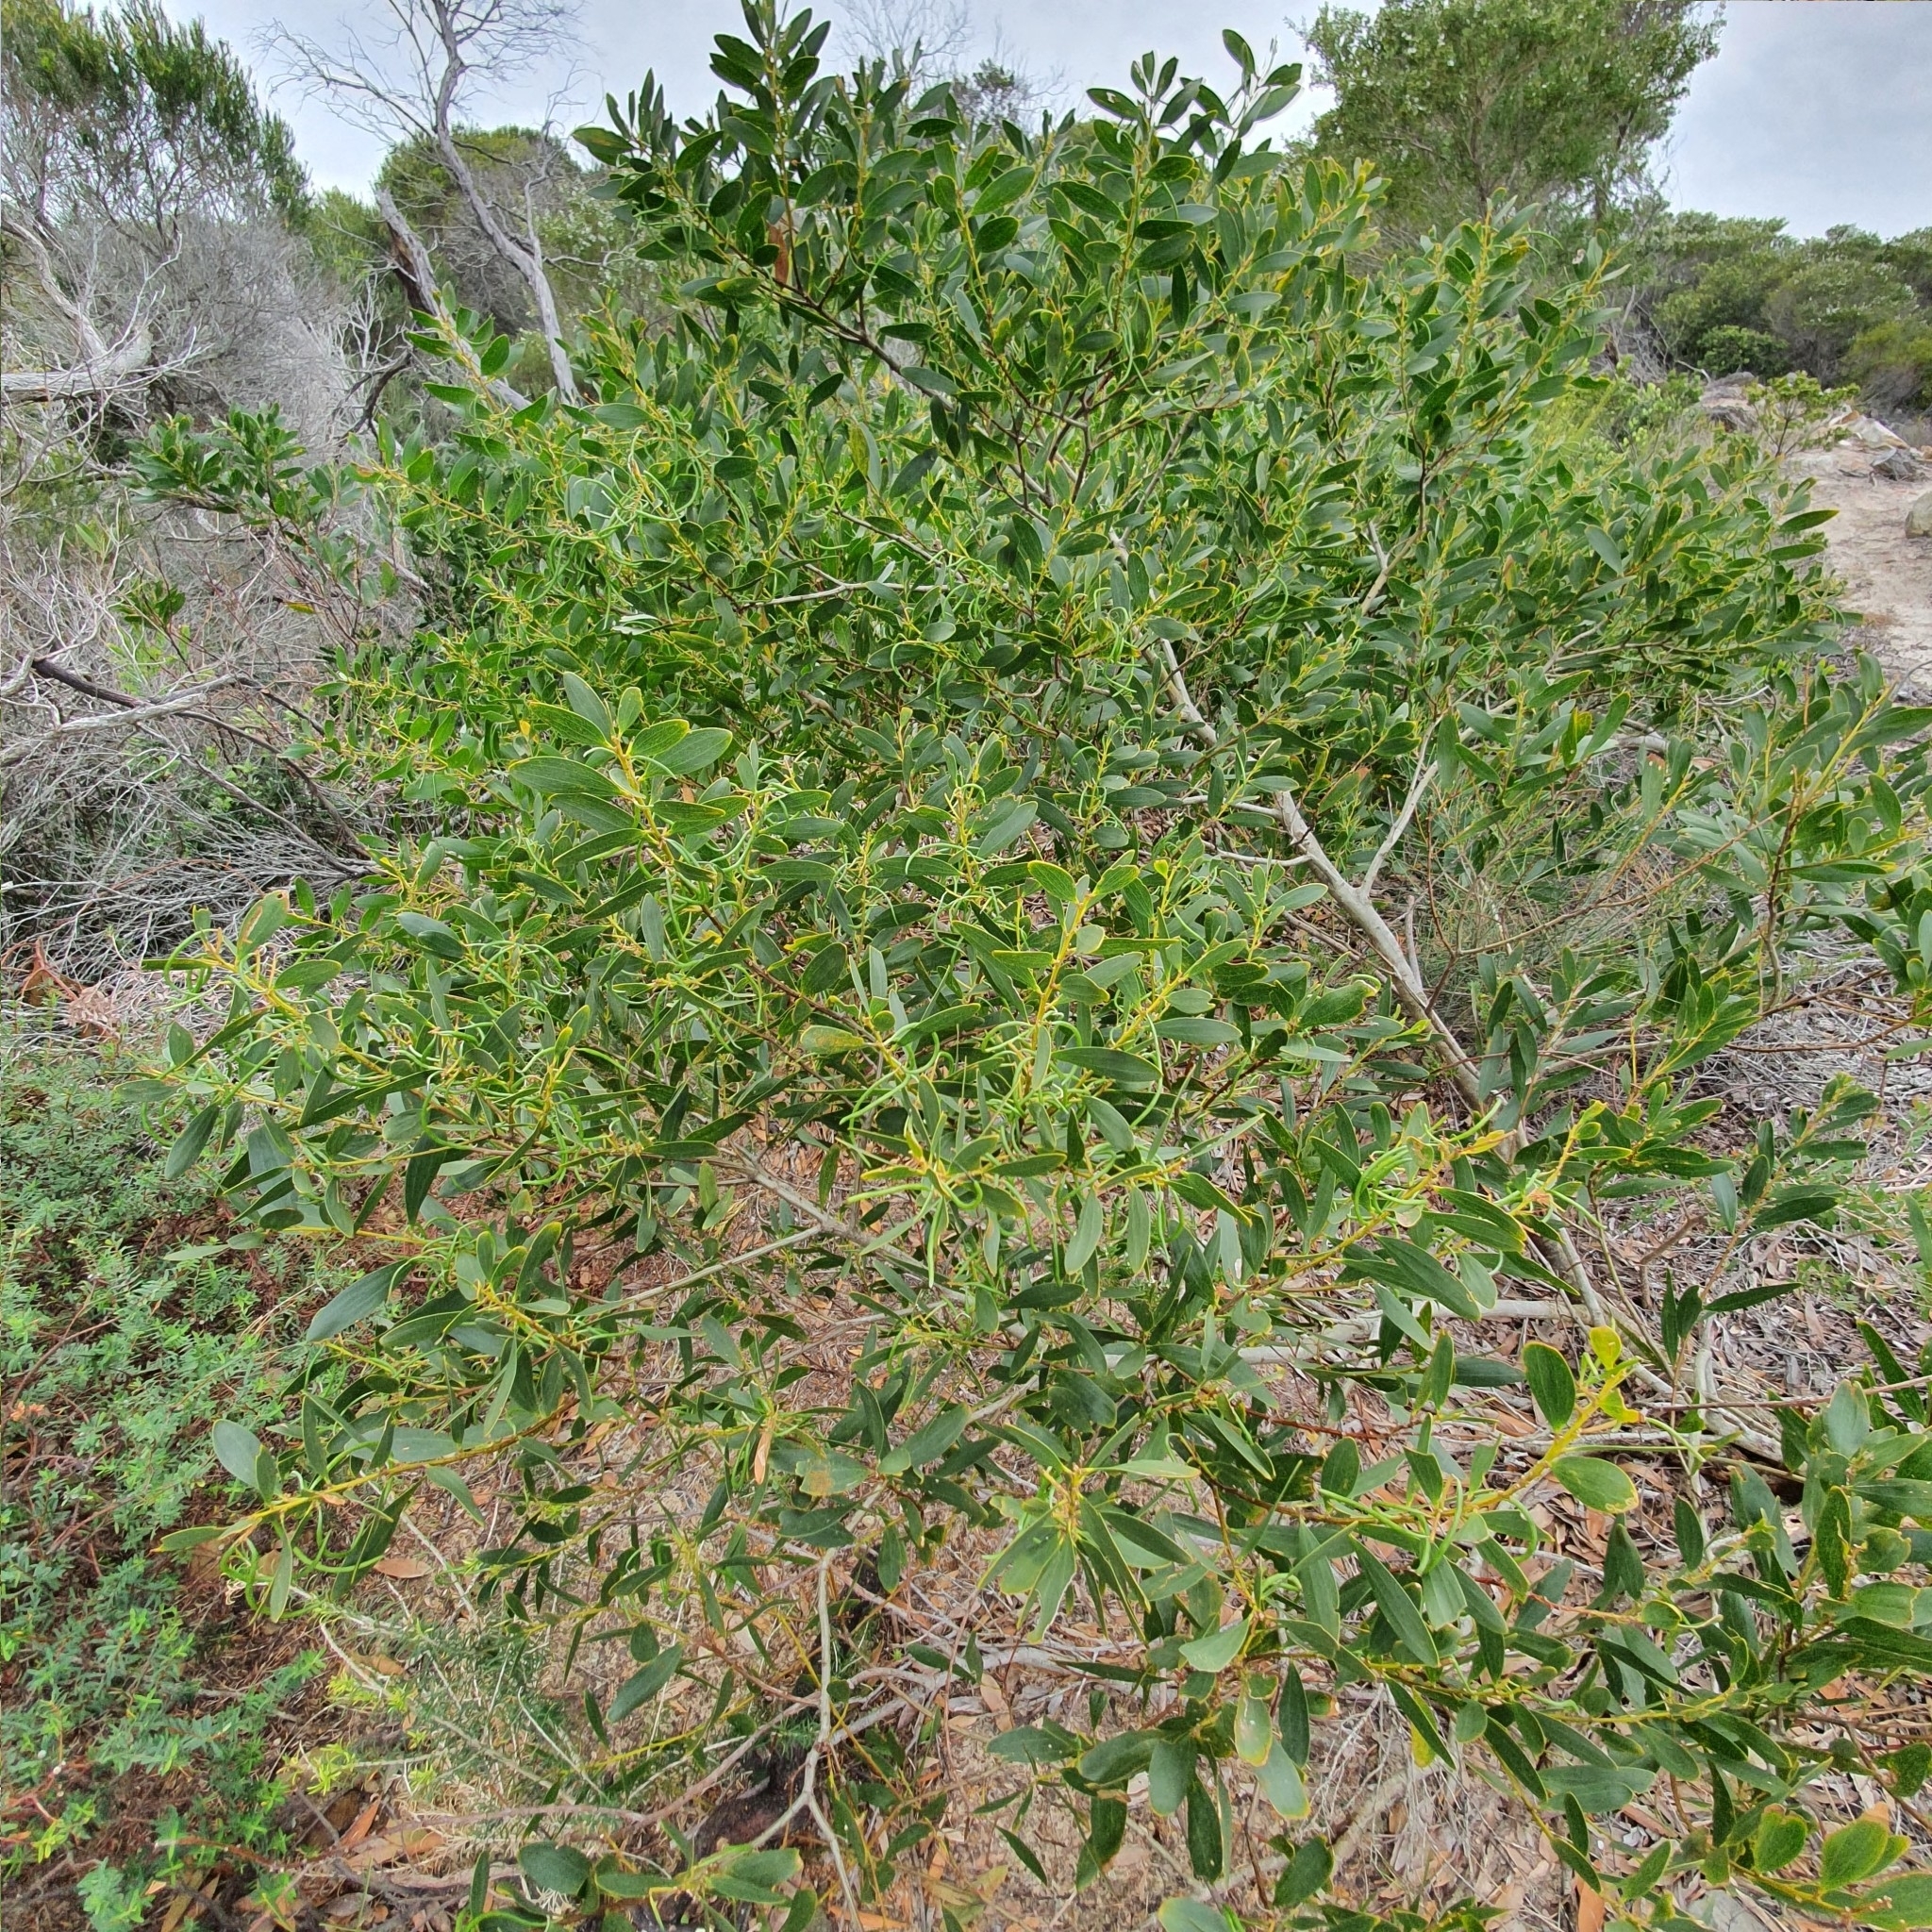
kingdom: Plantae
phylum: Tracheophyta
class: Magnoliopsida
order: Fabales
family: Fabaceae
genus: Acacia
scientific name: Acacia longifolia
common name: Sydney golden wattle
